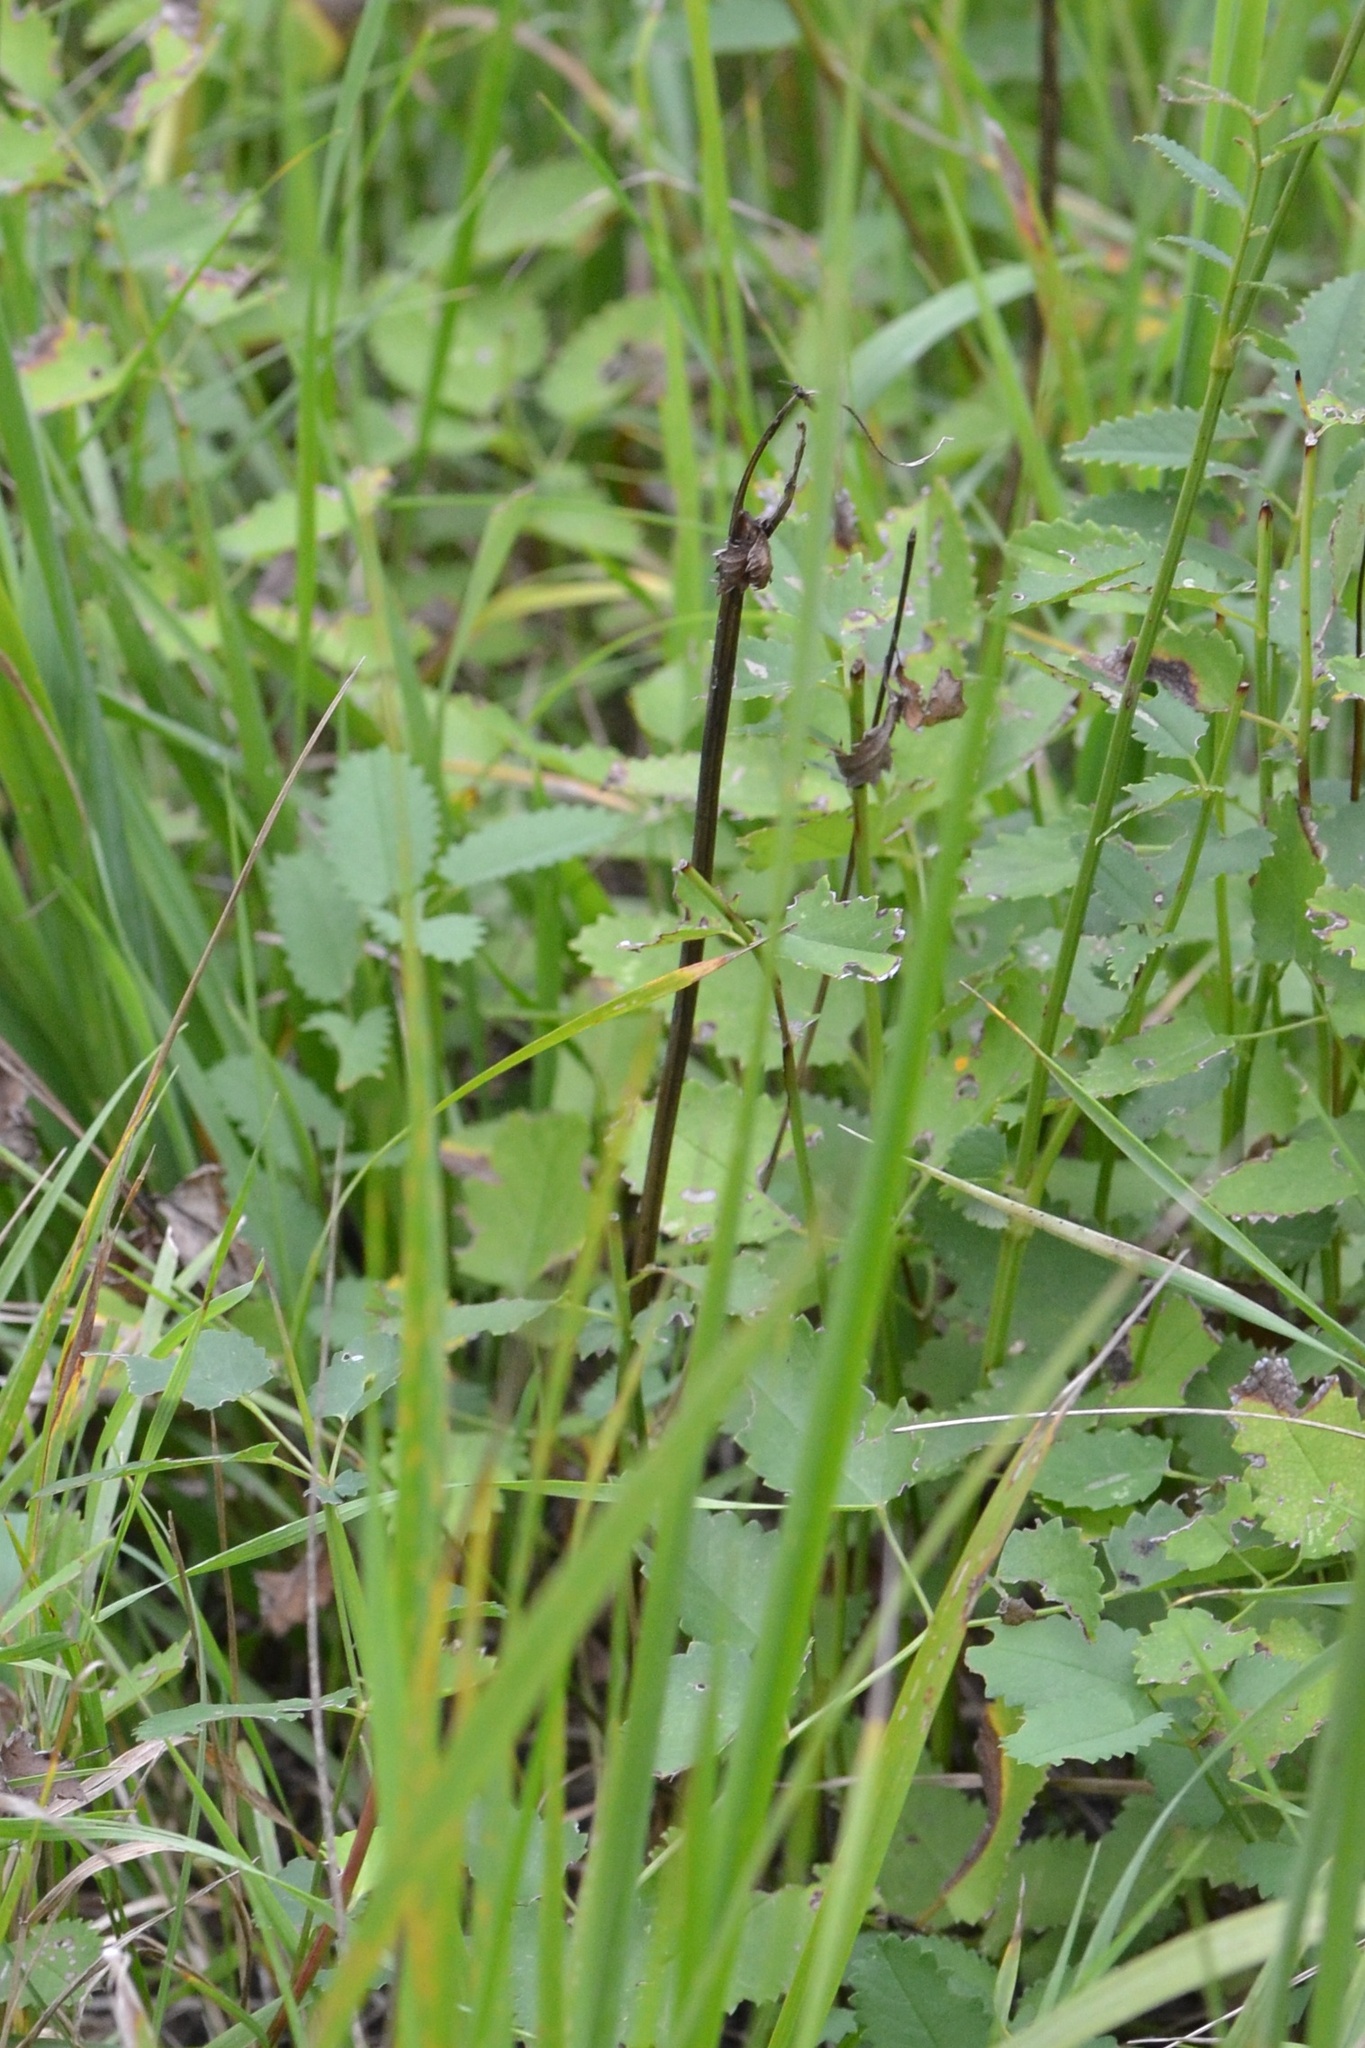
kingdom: Plantae
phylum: Tracheophyta
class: Magnoliopsida
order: Rosales
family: Rosaceae
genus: Sanguisorba
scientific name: Sanguisorba officinalis
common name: Great burnet
